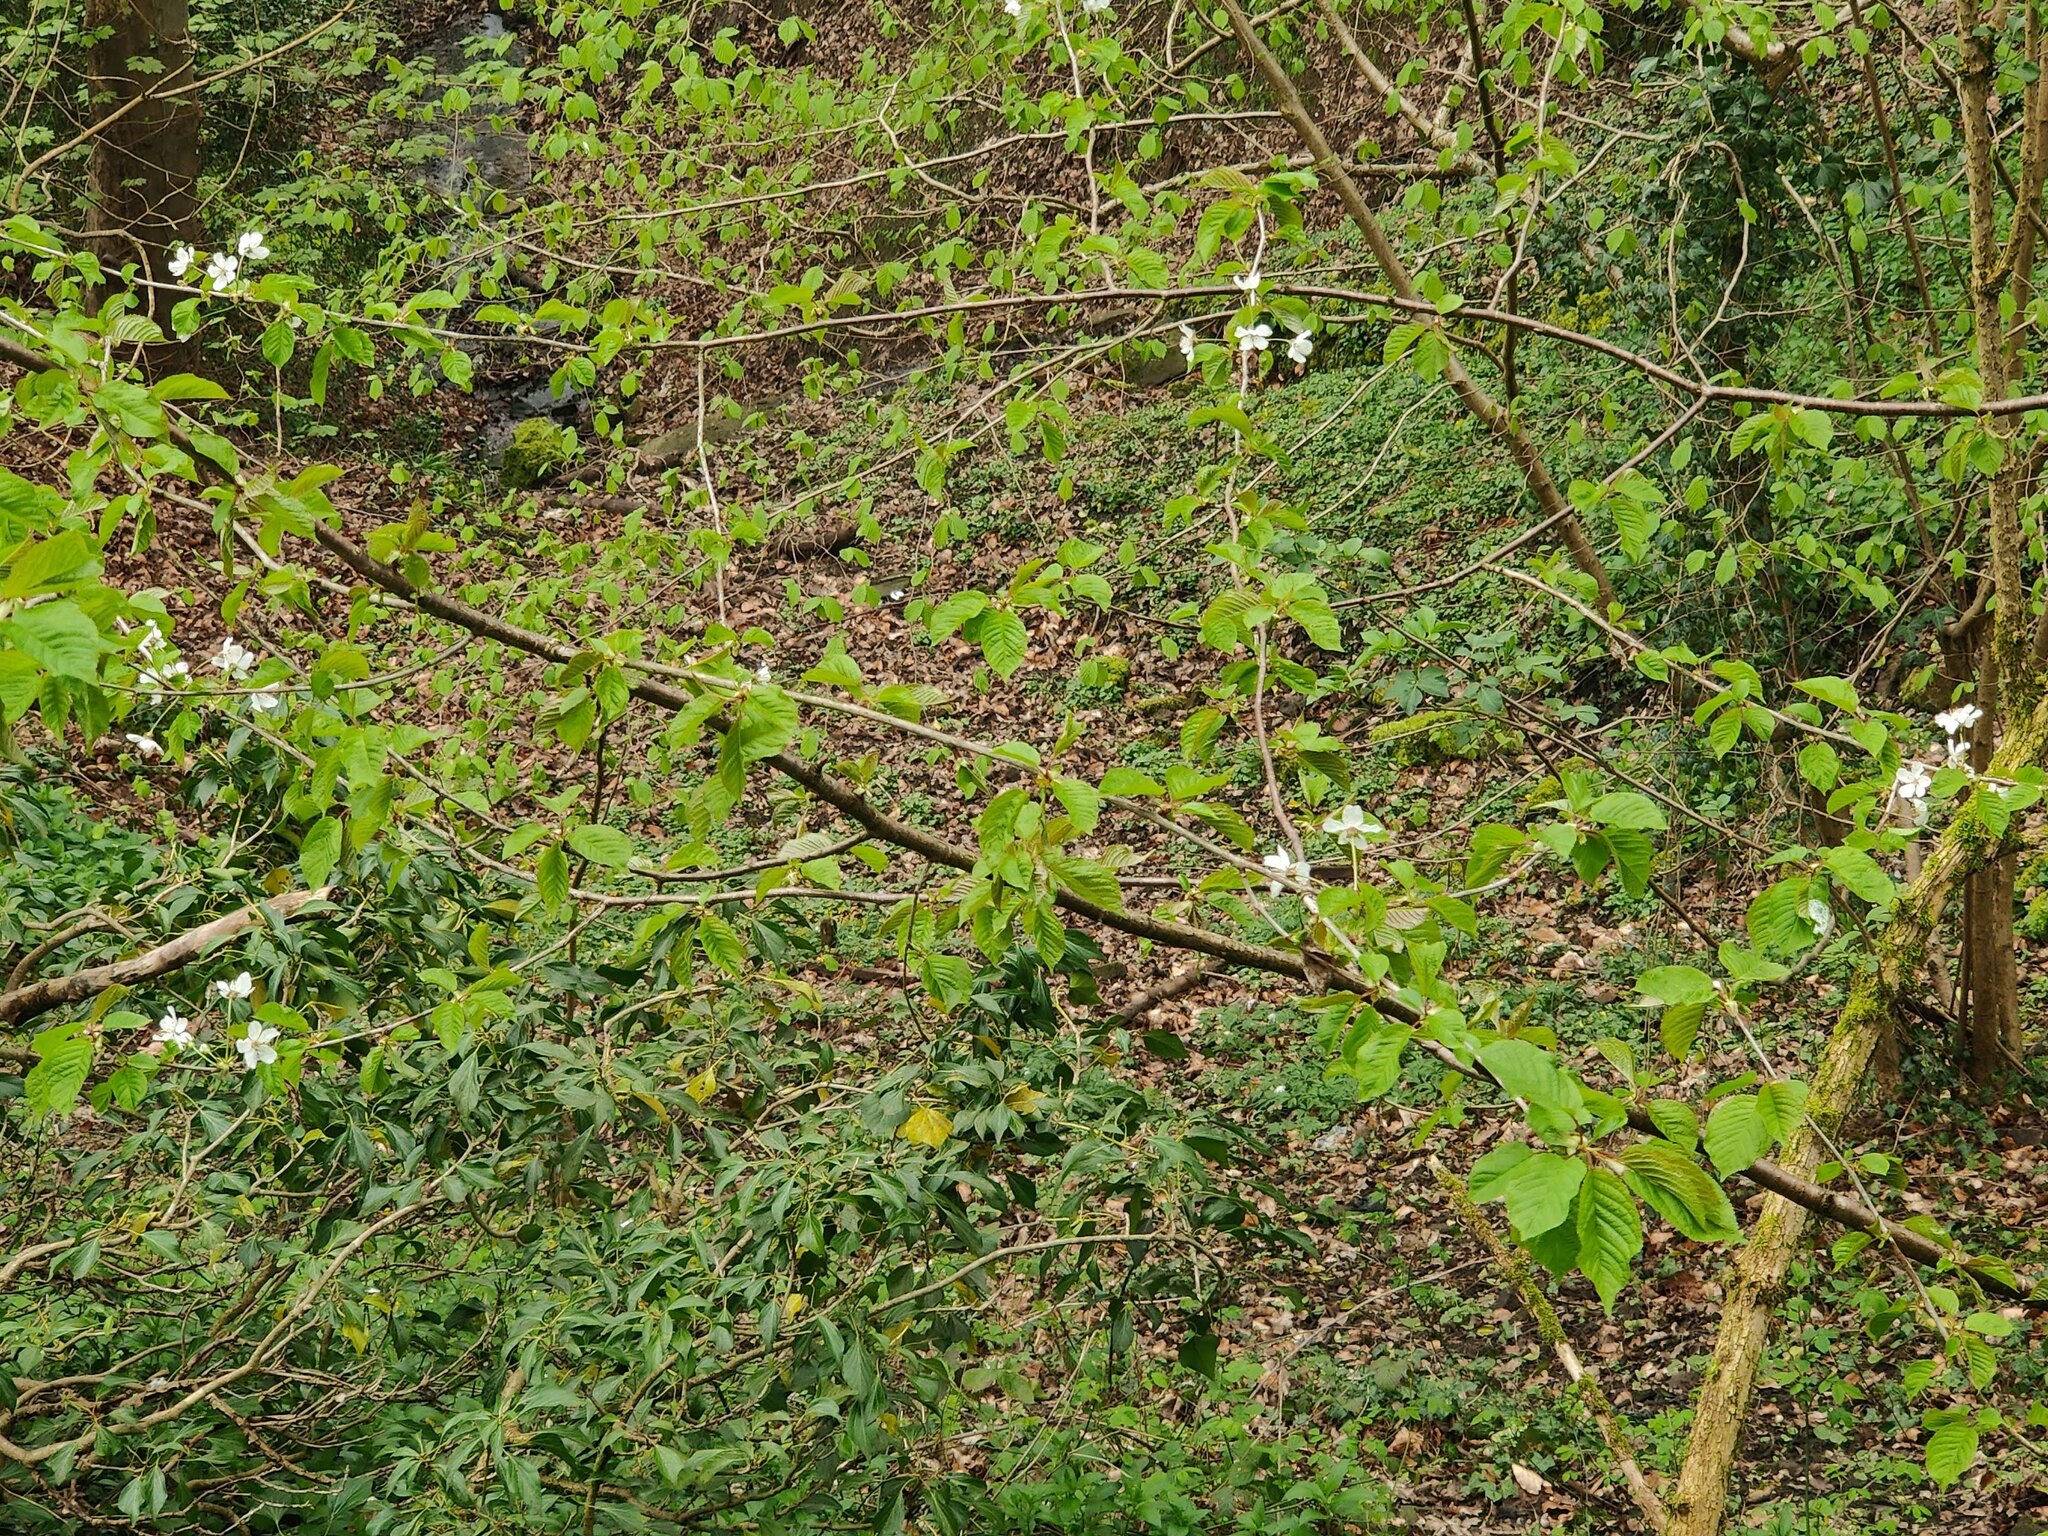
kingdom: Plantae
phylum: Tracheophyta
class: Magnoliopsida
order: Rosales
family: Rosaceae
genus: Prunus
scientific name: Prunus avium
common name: Sweet cherry
